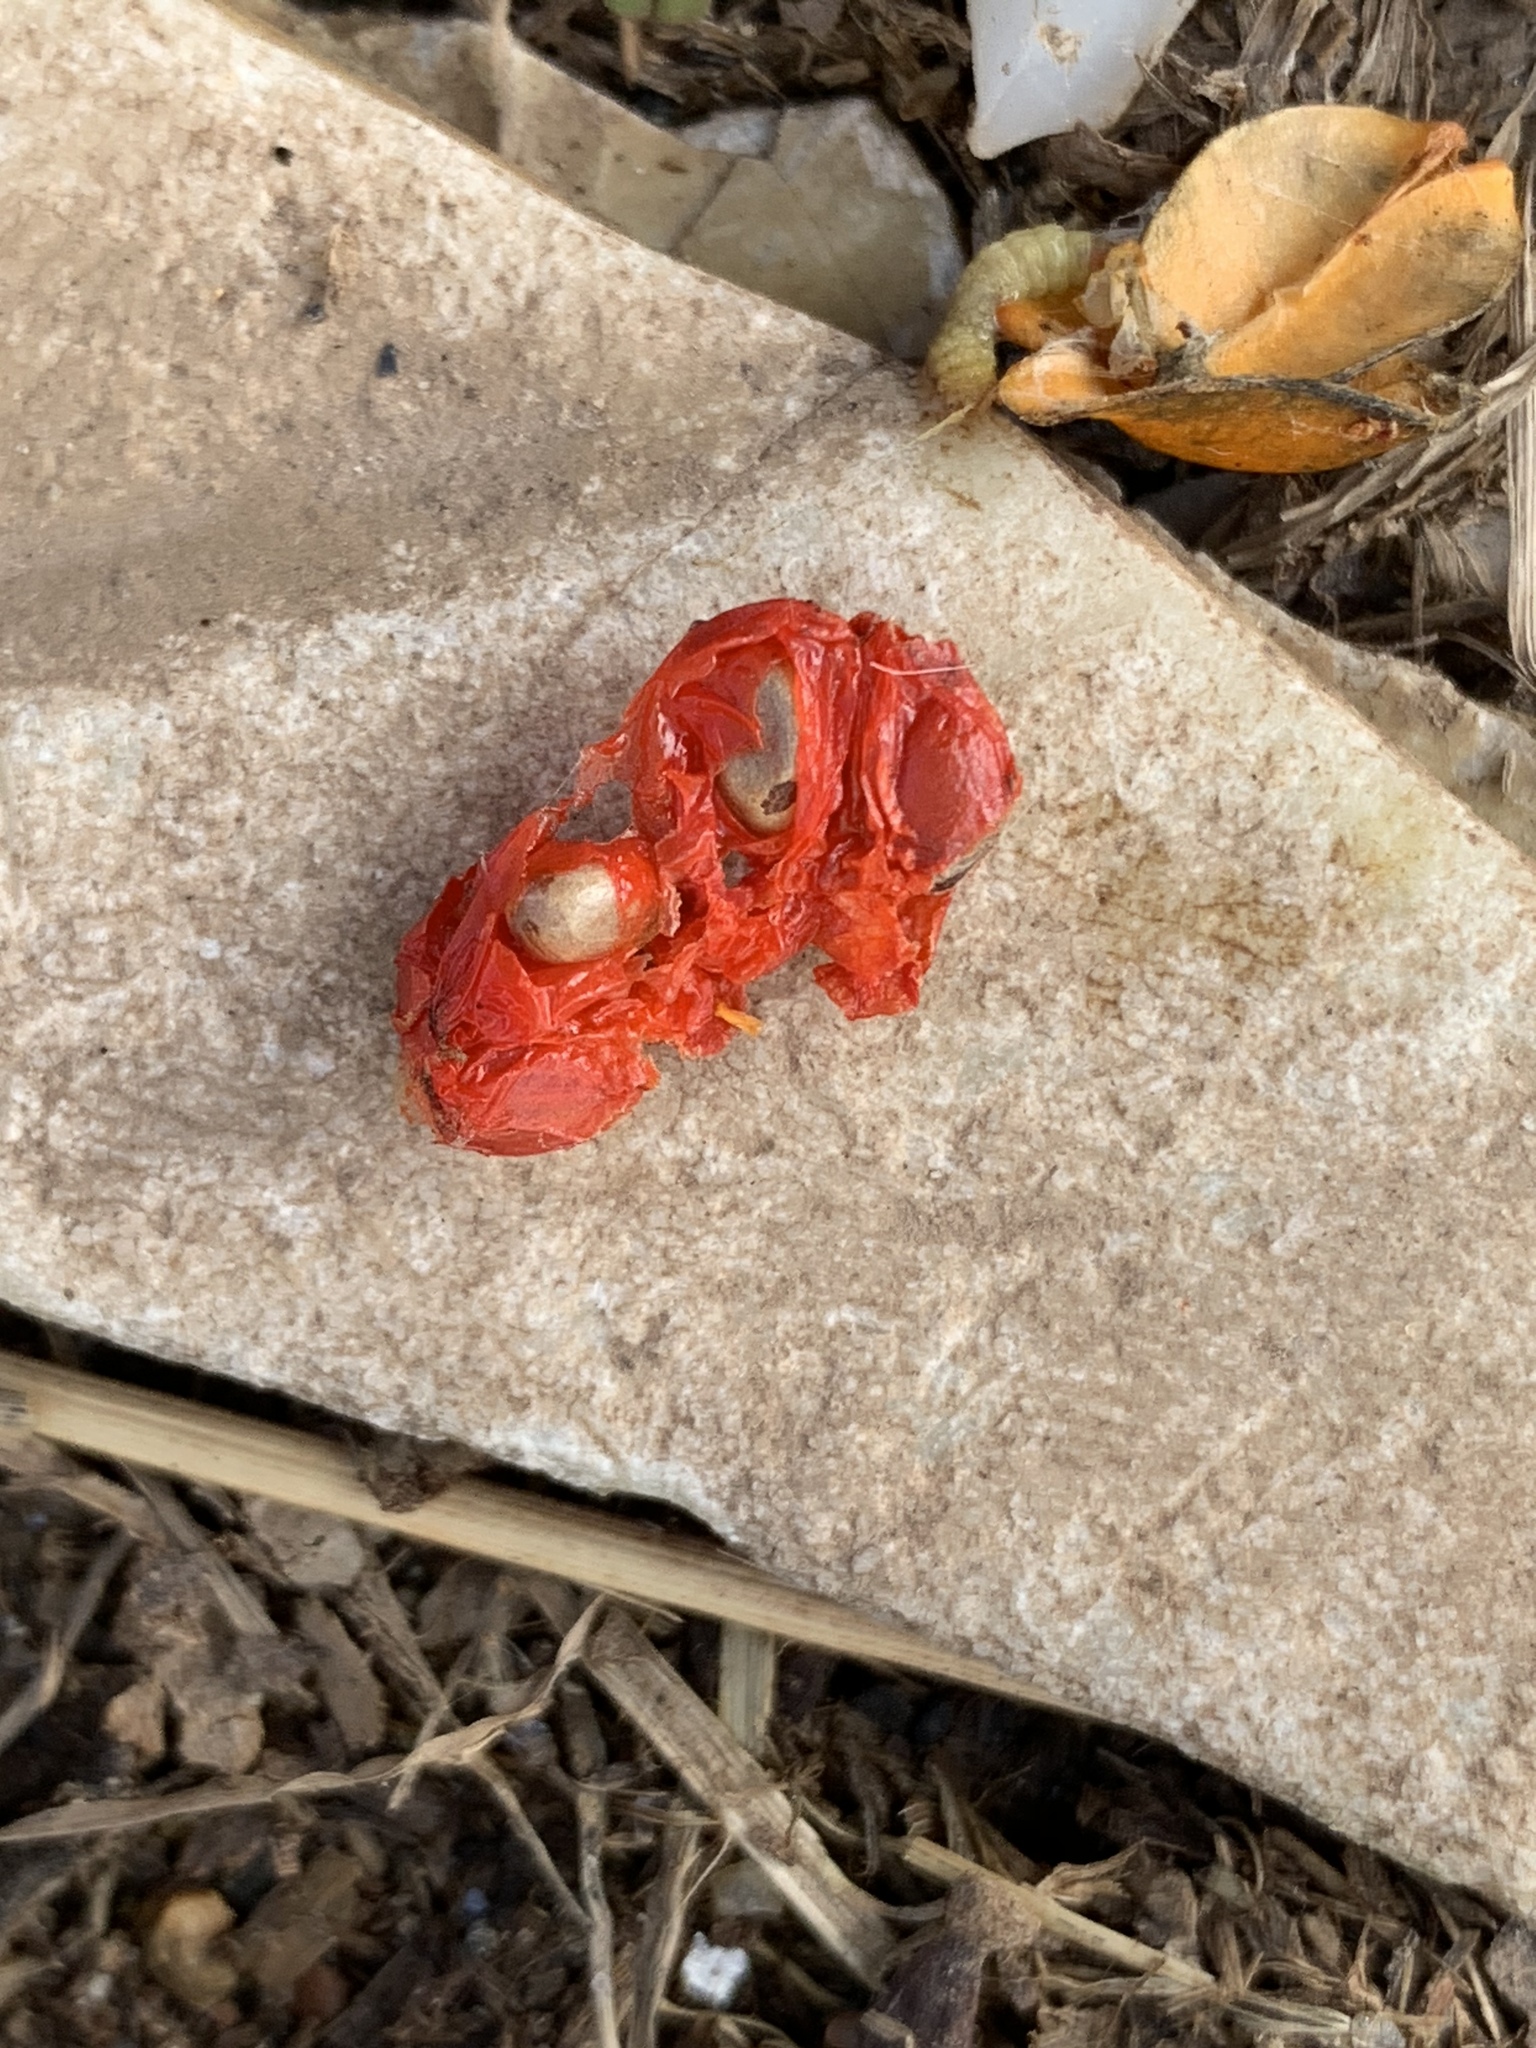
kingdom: Plantae
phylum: Tracheophyta
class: Magnoliopsida
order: Celastrales
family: Celastraceae
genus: Celastrus
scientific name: Celastrus orbiculatus
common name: Oriental bittersweet
